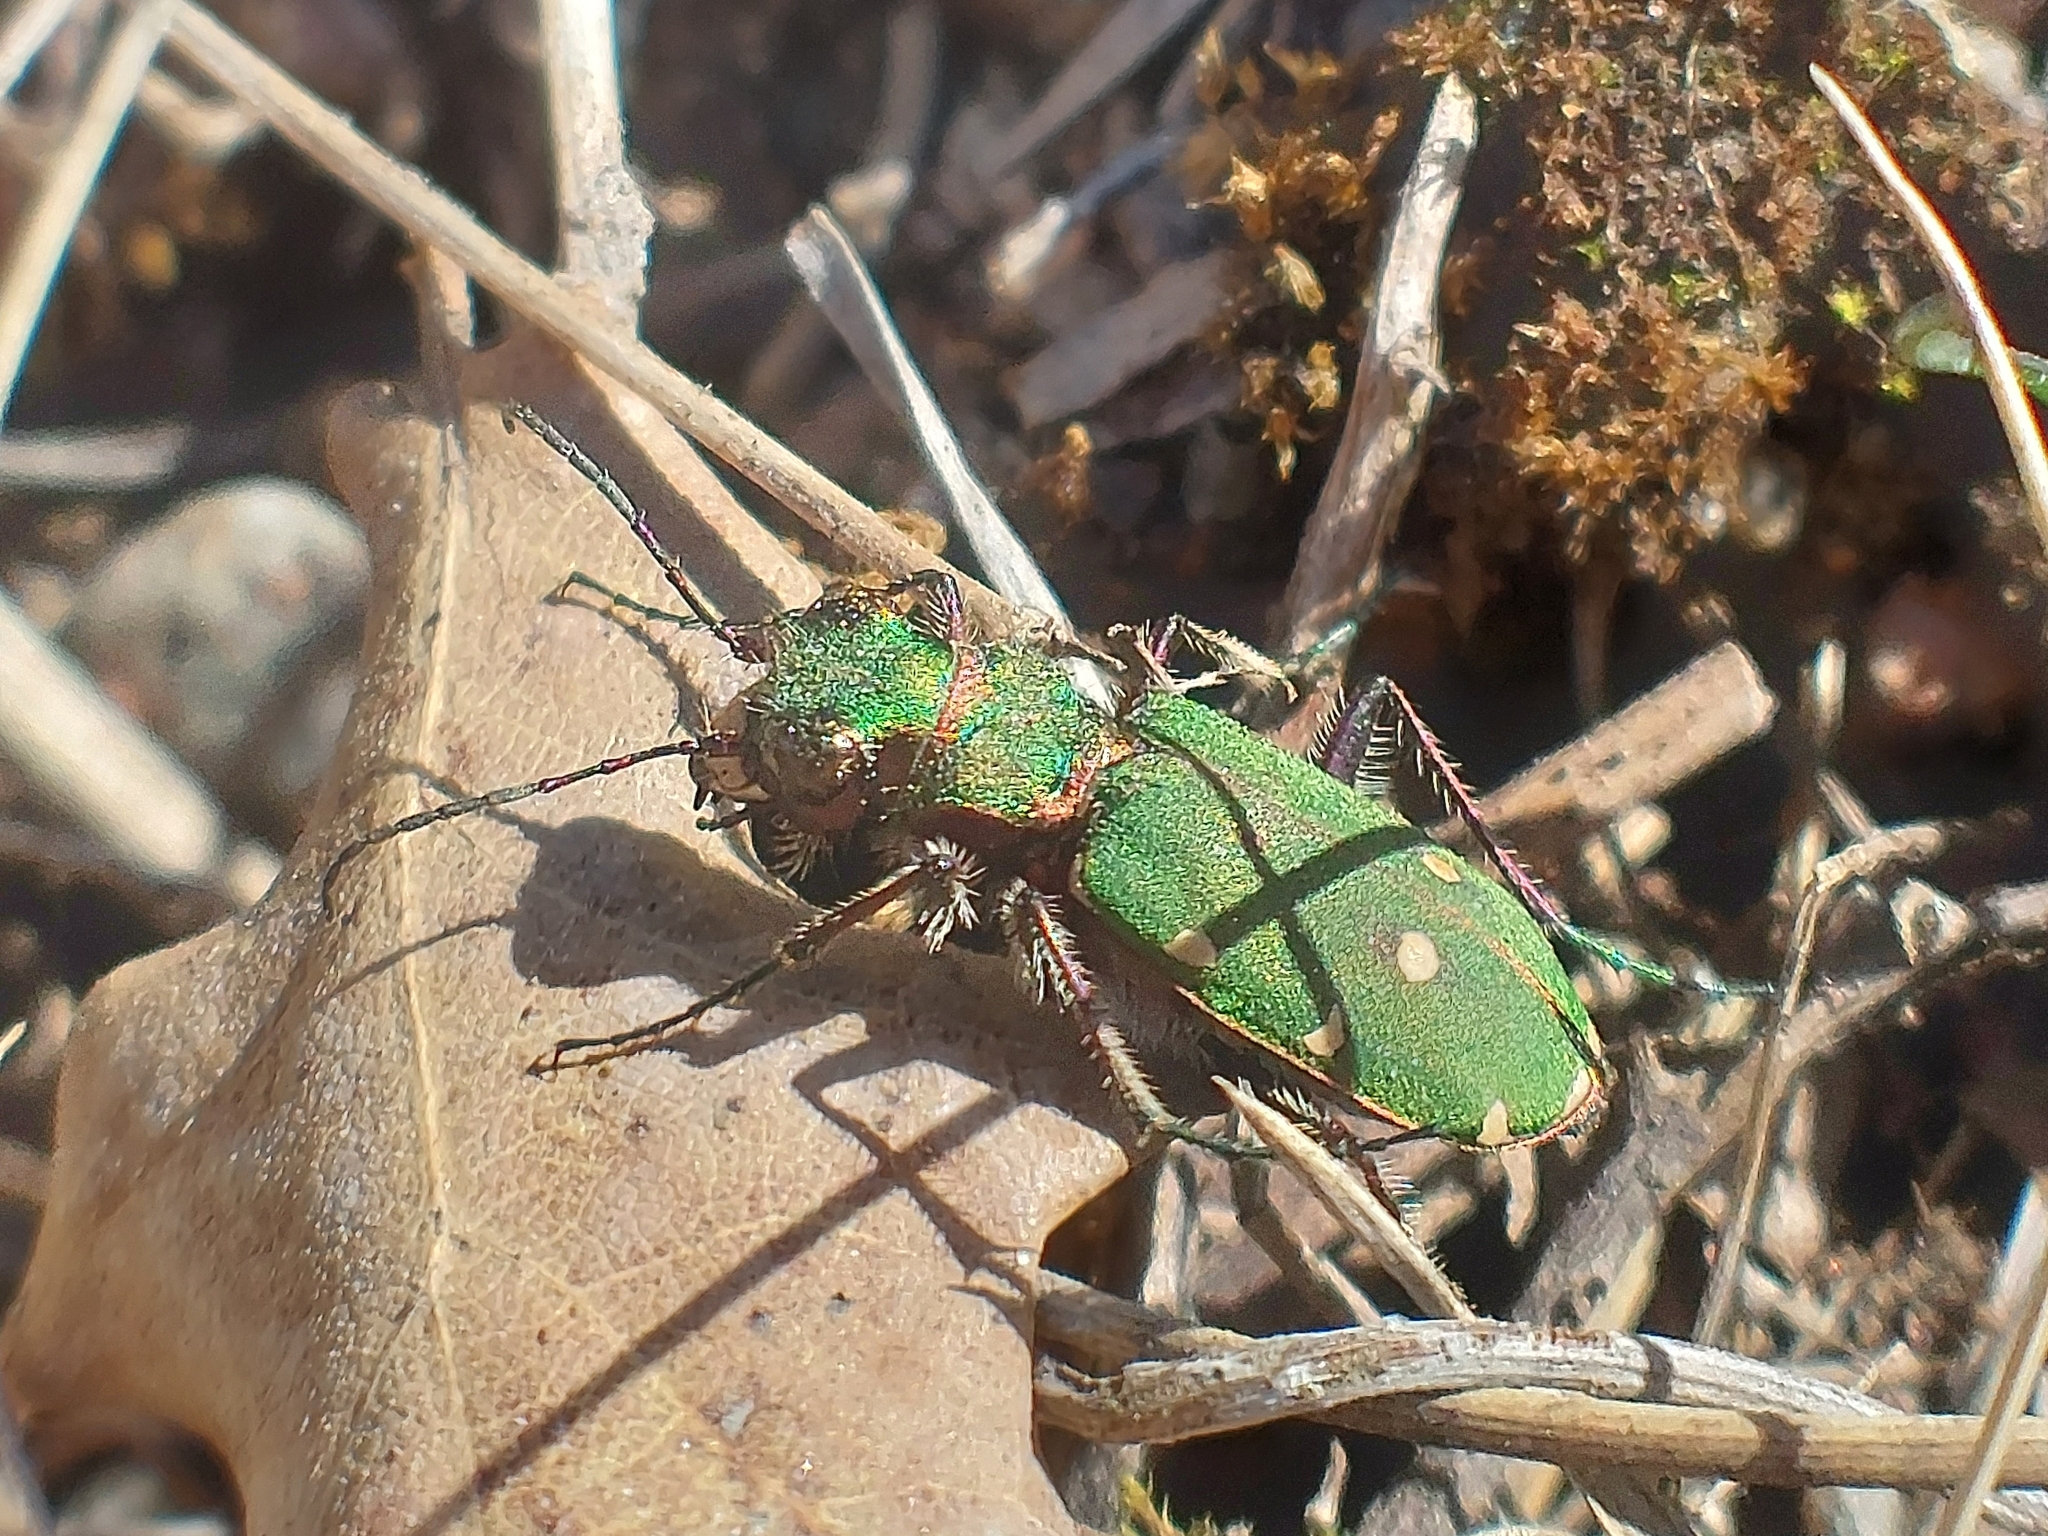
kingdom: Animalia
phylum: Arthropoda
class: Insecta
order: Coleoptera
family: Carabidae
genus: Cicindela
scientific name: Cicindela campestris
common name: Common tiger beetle
